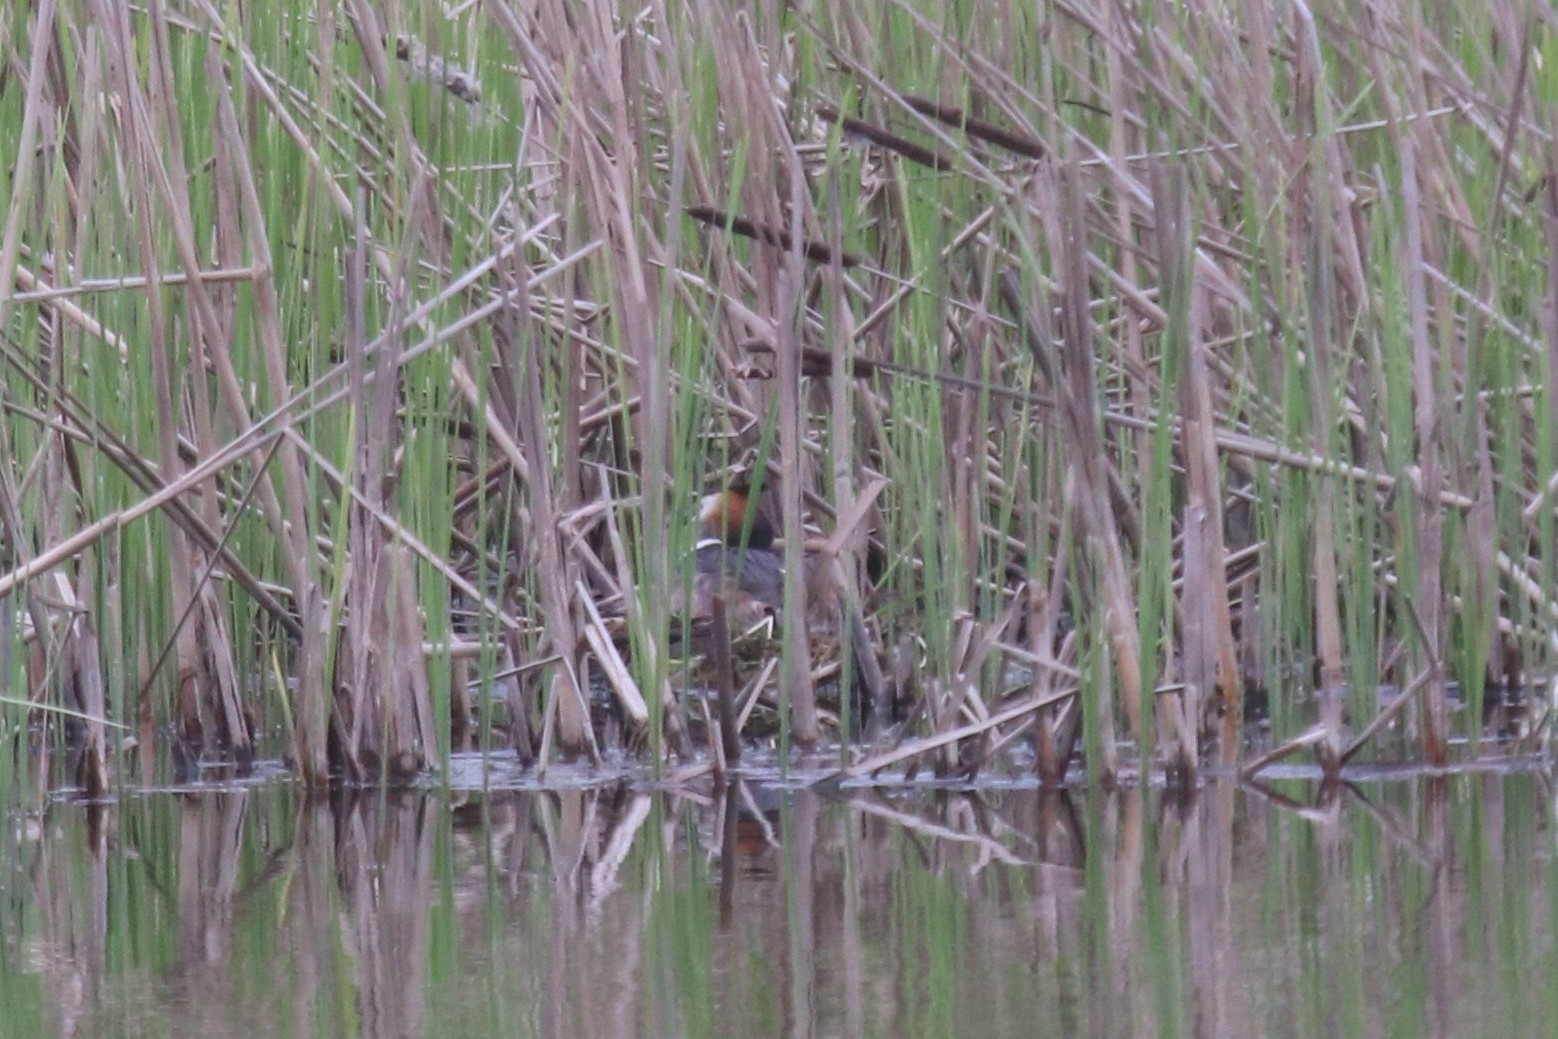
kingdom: Animalia
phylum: Chordata
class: Aves
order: Podicipediformes
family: Podicipedidae
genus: Podiceps
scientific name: Podiceps cristatus
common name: Great crested grebe
